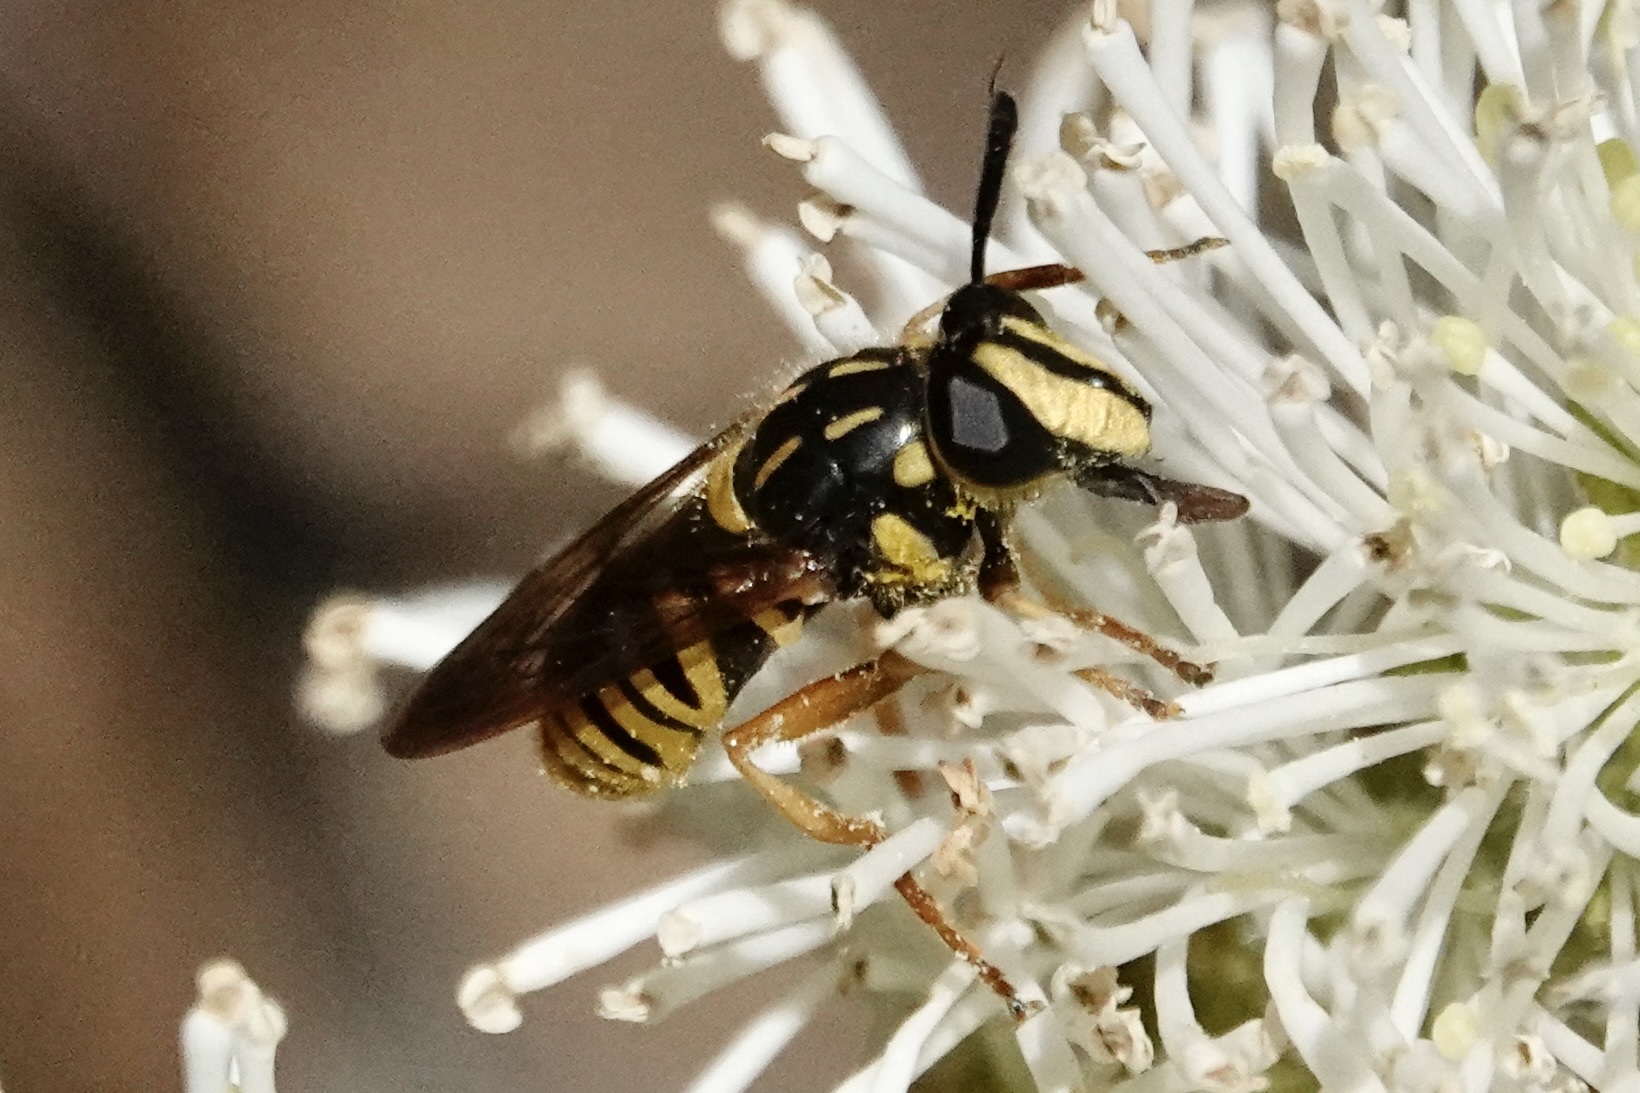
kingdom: Animalia
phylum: Arthropoda
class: Insecta
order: Diptera
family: Syrphidae
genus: Sphecomyia
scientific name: Sphecomyia vittata
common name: Long-horned yellowjacket fly
